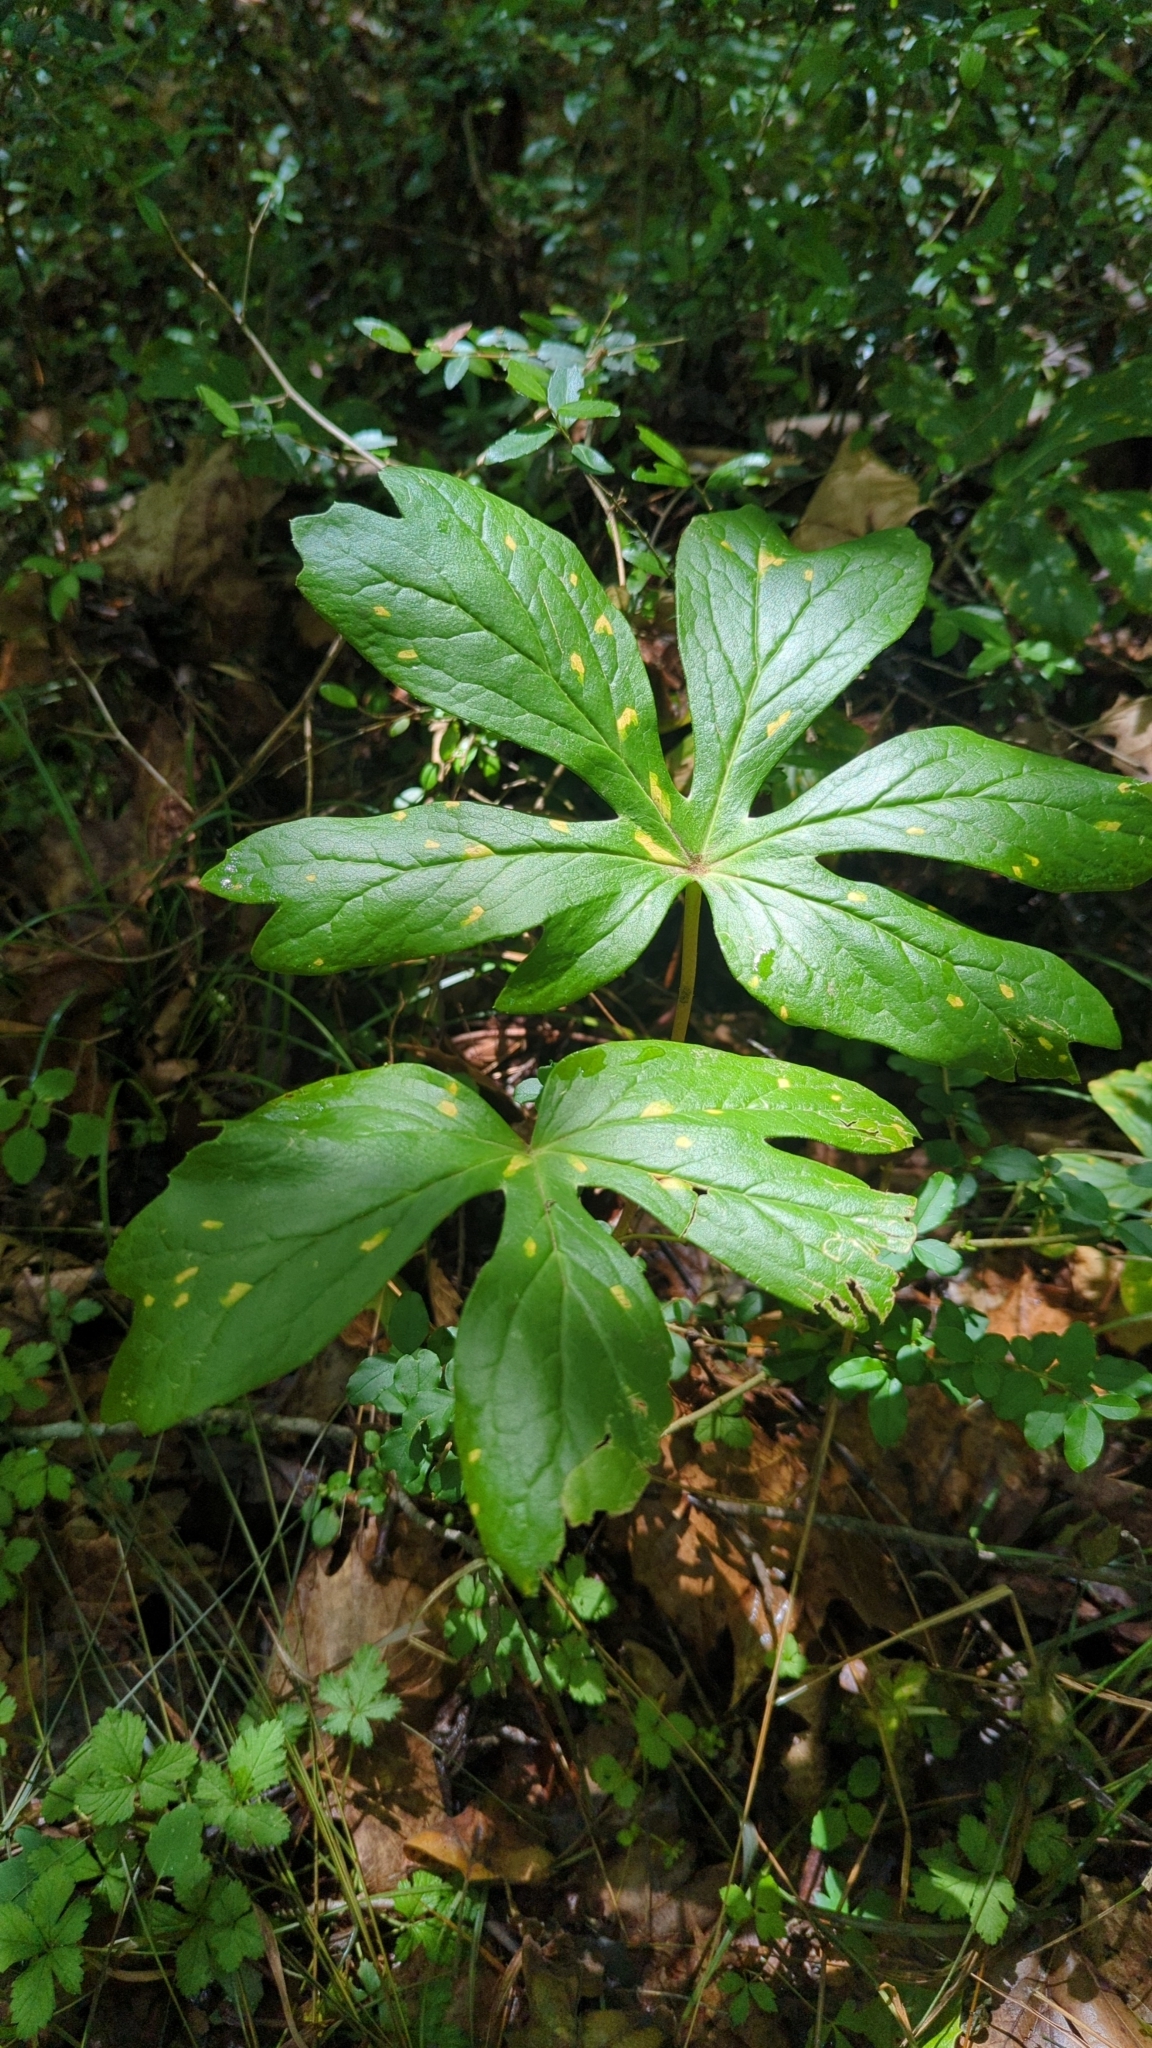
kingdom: Plantae
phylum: Tracheophyta
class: Magnoliopsida
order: Ranunculales
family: Berberidaceae
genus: Podophyllum
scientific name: Podophyllum peltatum
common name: Wild mandrake
